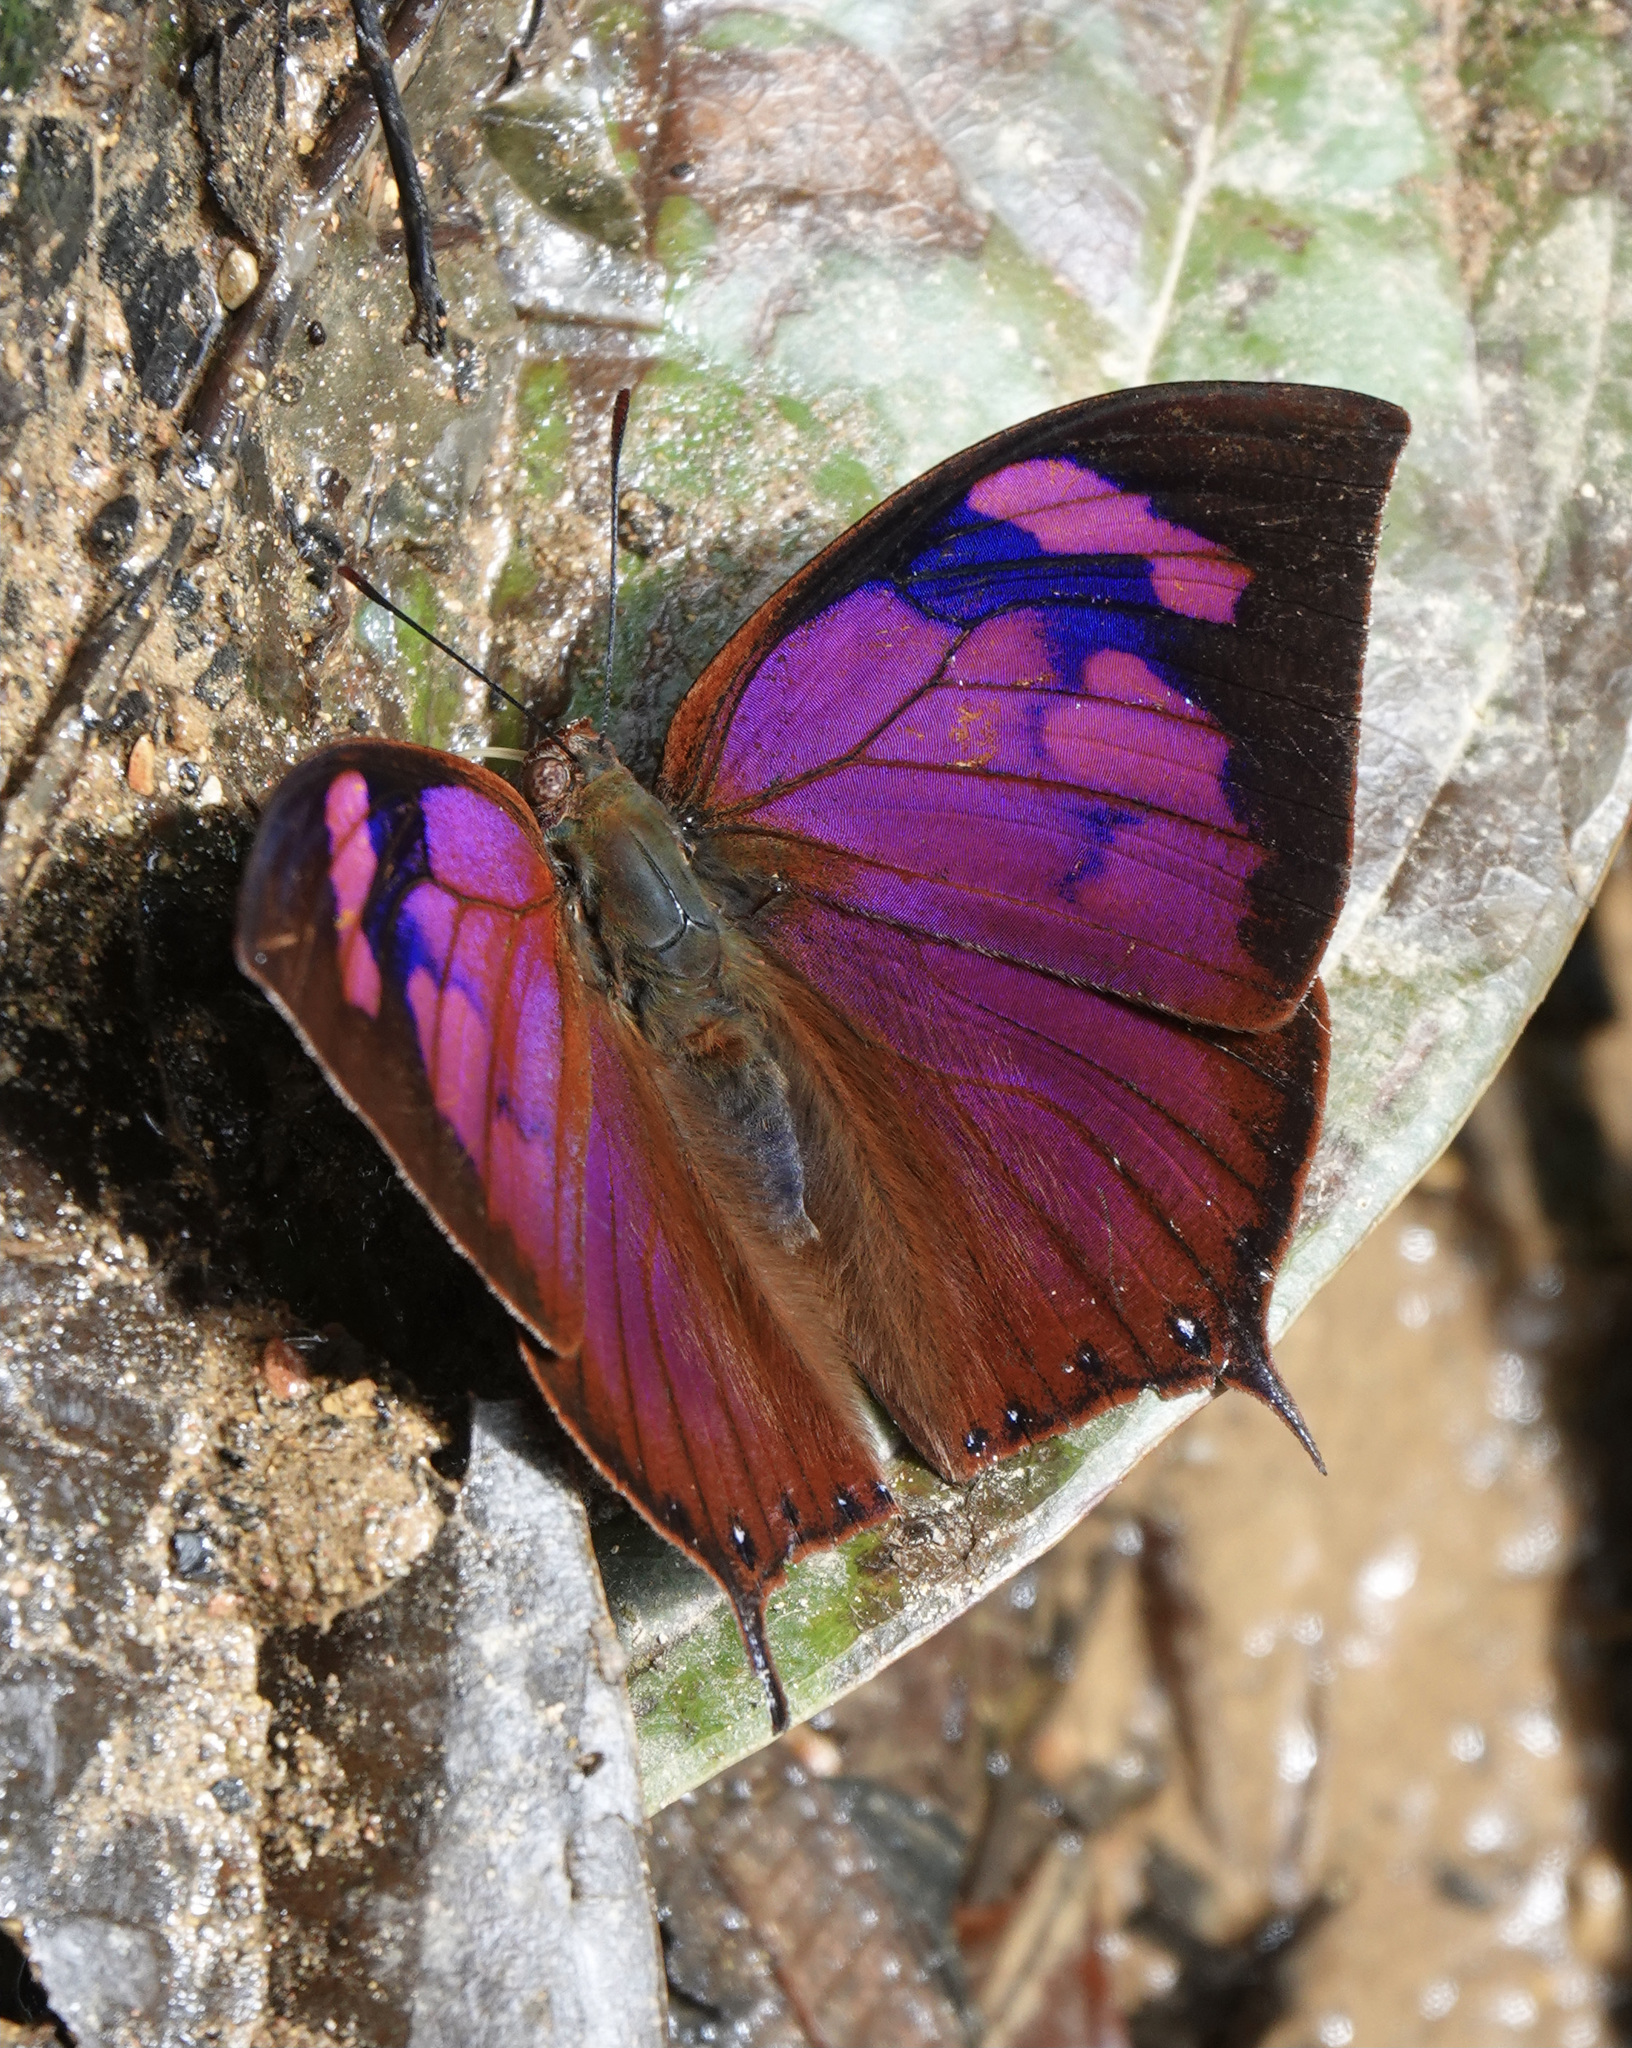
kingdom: Animalia
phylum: Arthropoda
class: Insecta
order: Lepidoptera
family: Nymphalidae
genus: Fountainea
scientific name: Fountainea
